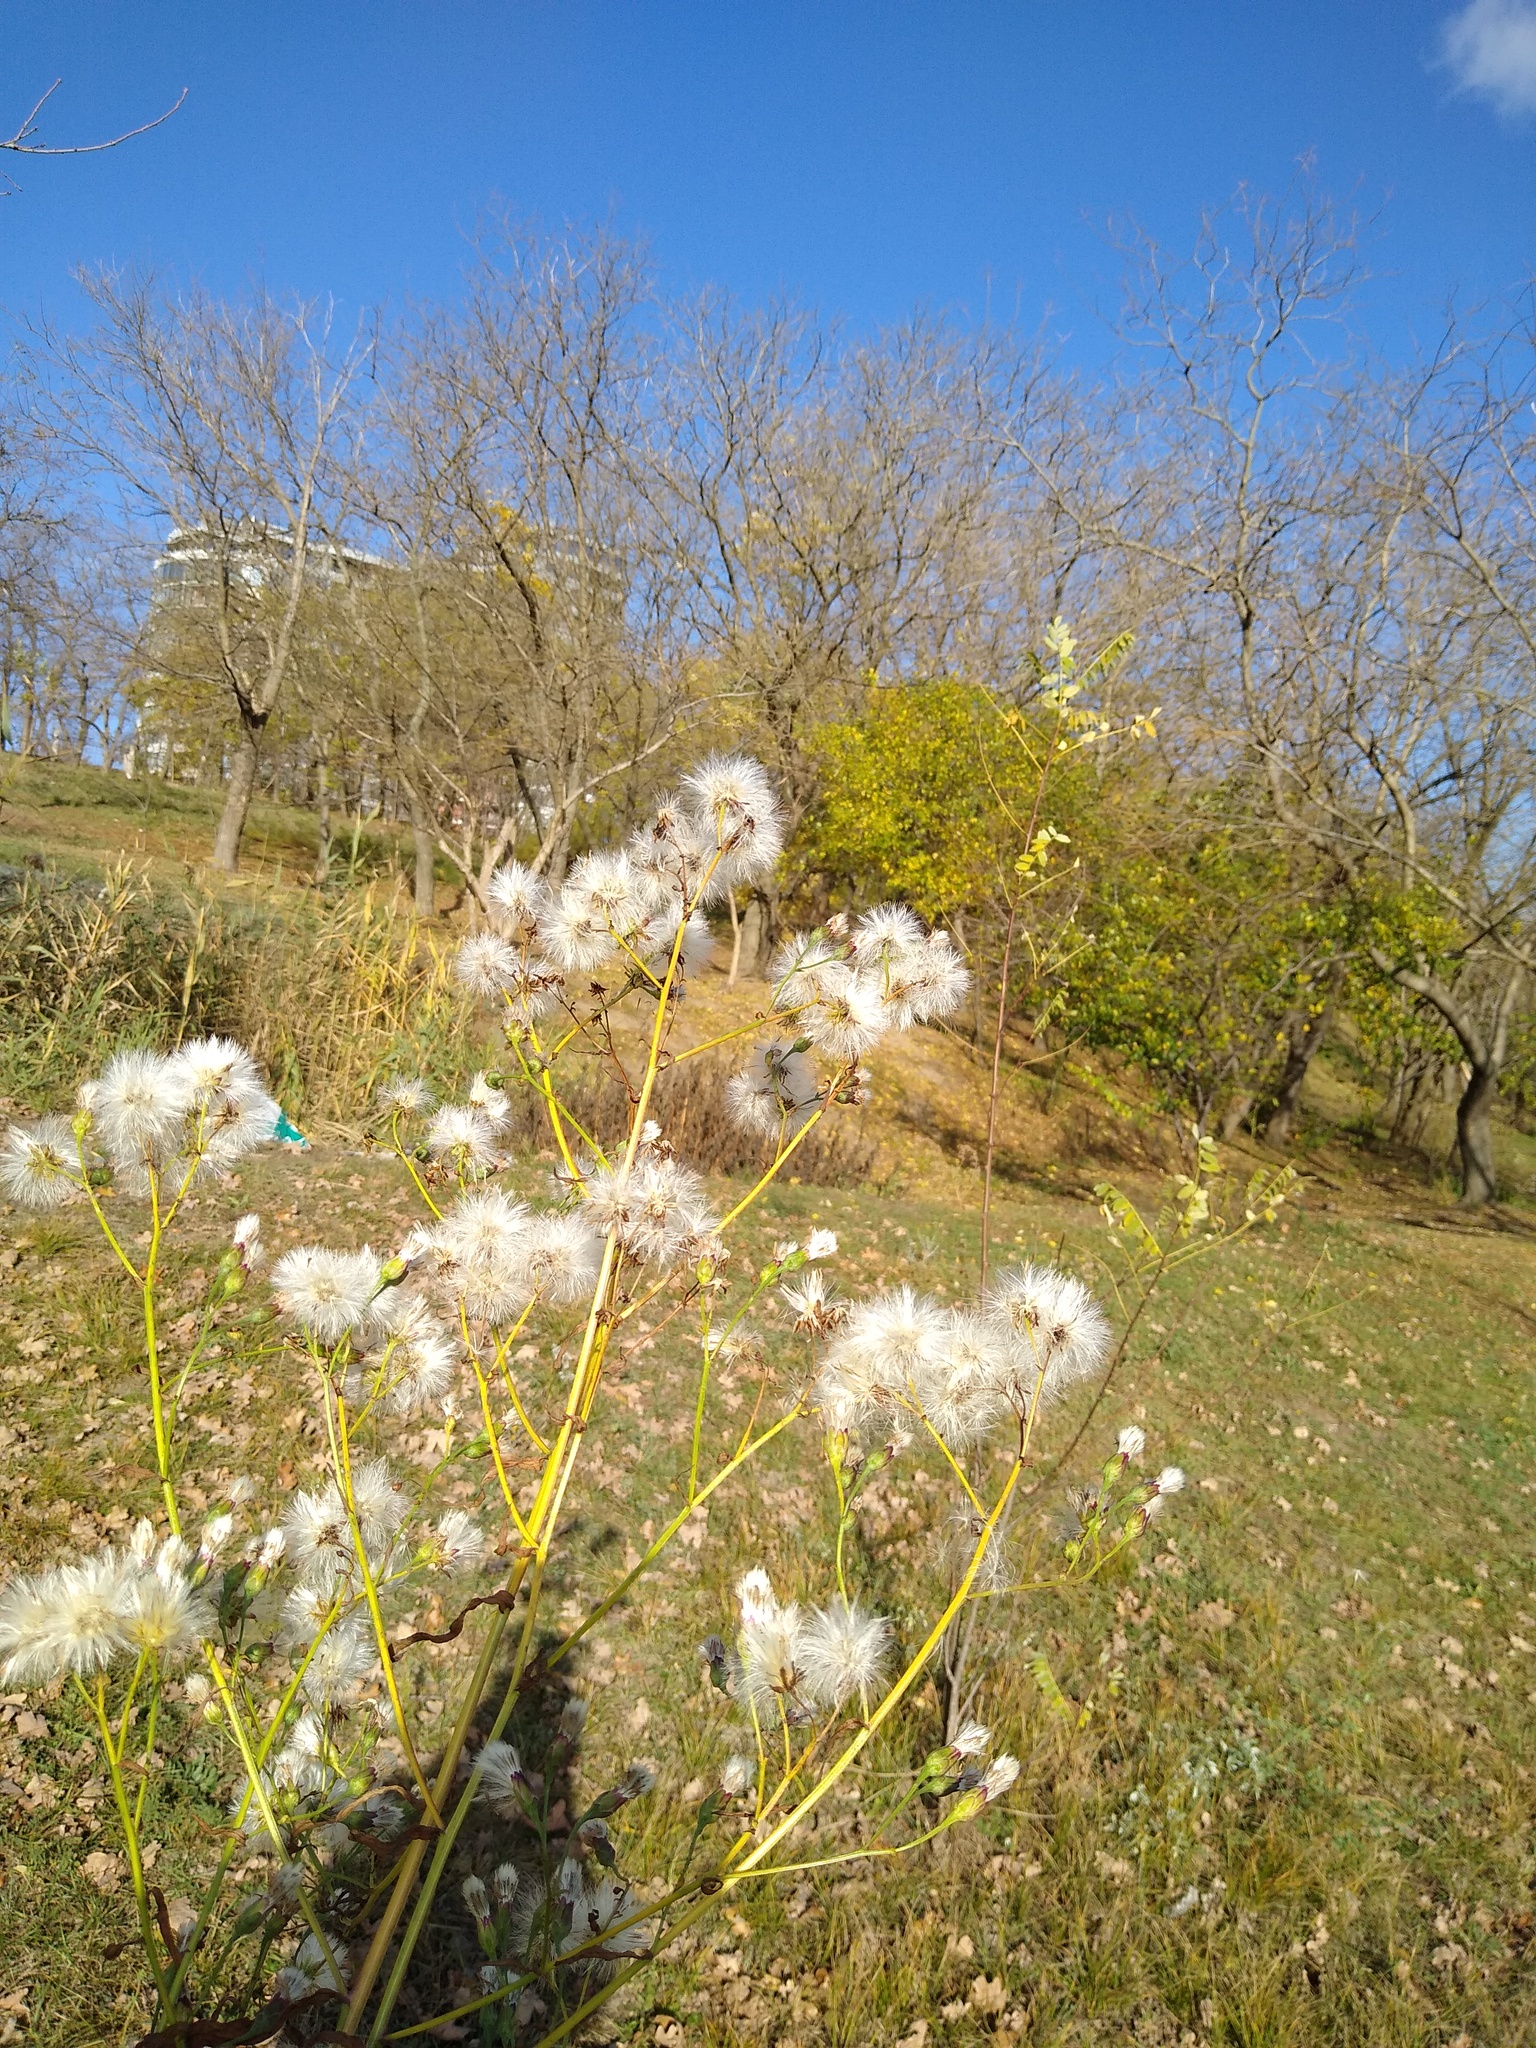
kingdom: Plantae
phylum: Tracheophyta
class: Magnoliopsida
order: Asterales
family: Asteraceae
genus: Tripolium
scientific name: Tripolium pannonicum
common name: Sea aster
